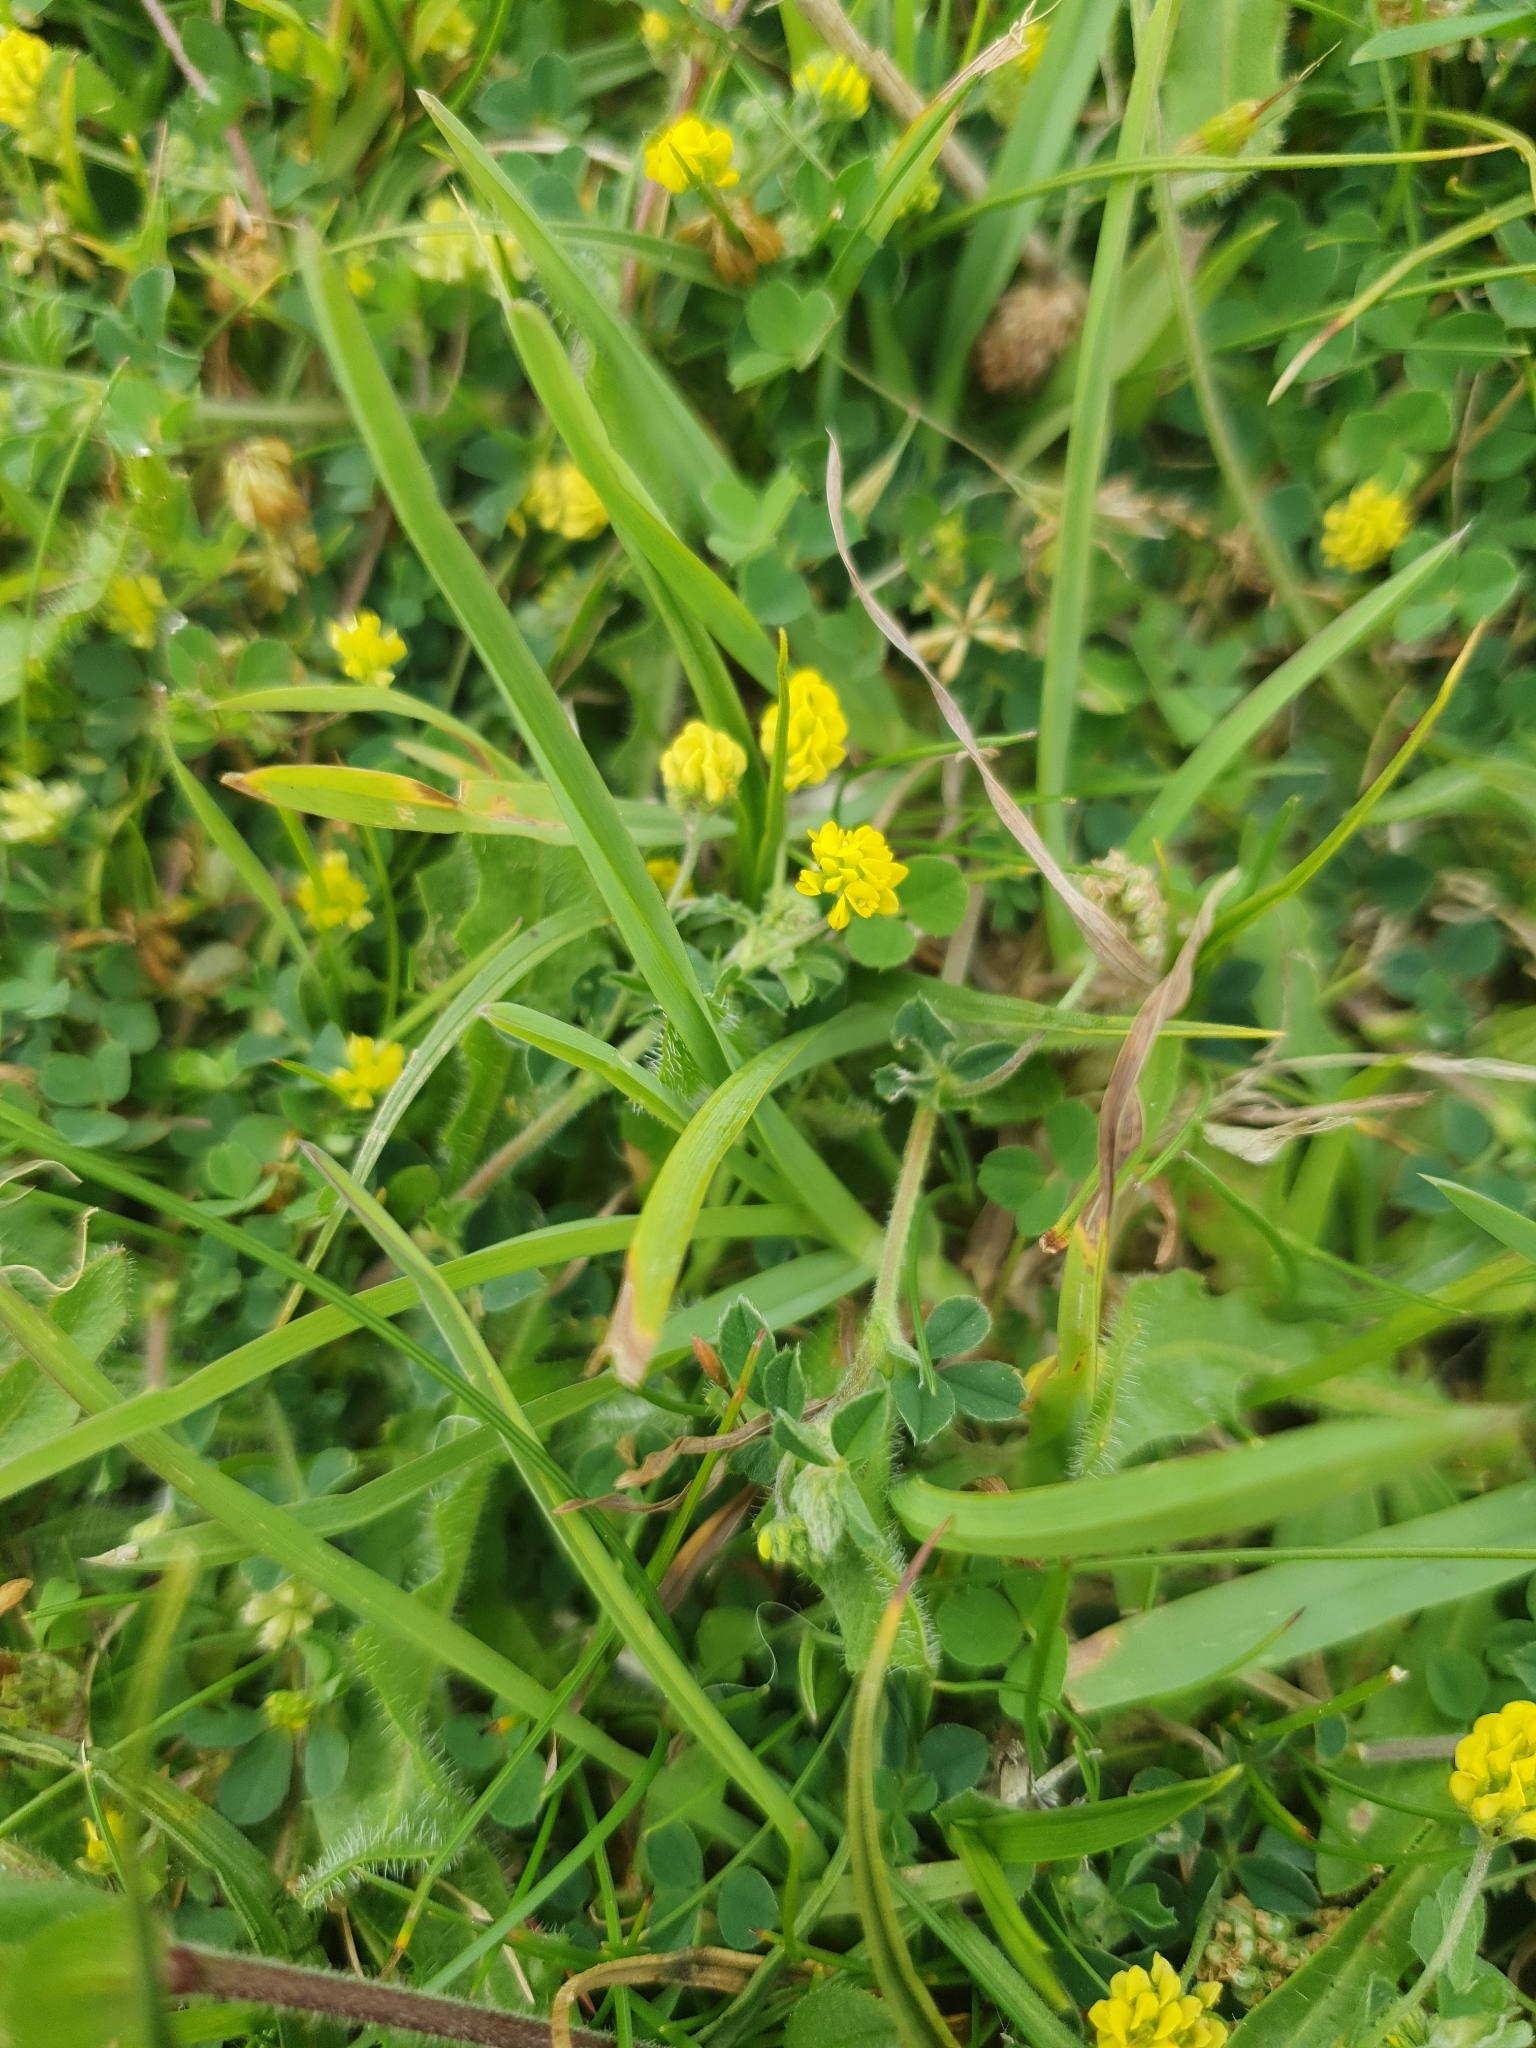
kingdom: Plantae
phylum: Tracheophyta
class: Magnoliopsida
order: Fabales
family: Fabaceae
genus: Medicago
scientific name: Medicago lupulina
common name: Black medick
